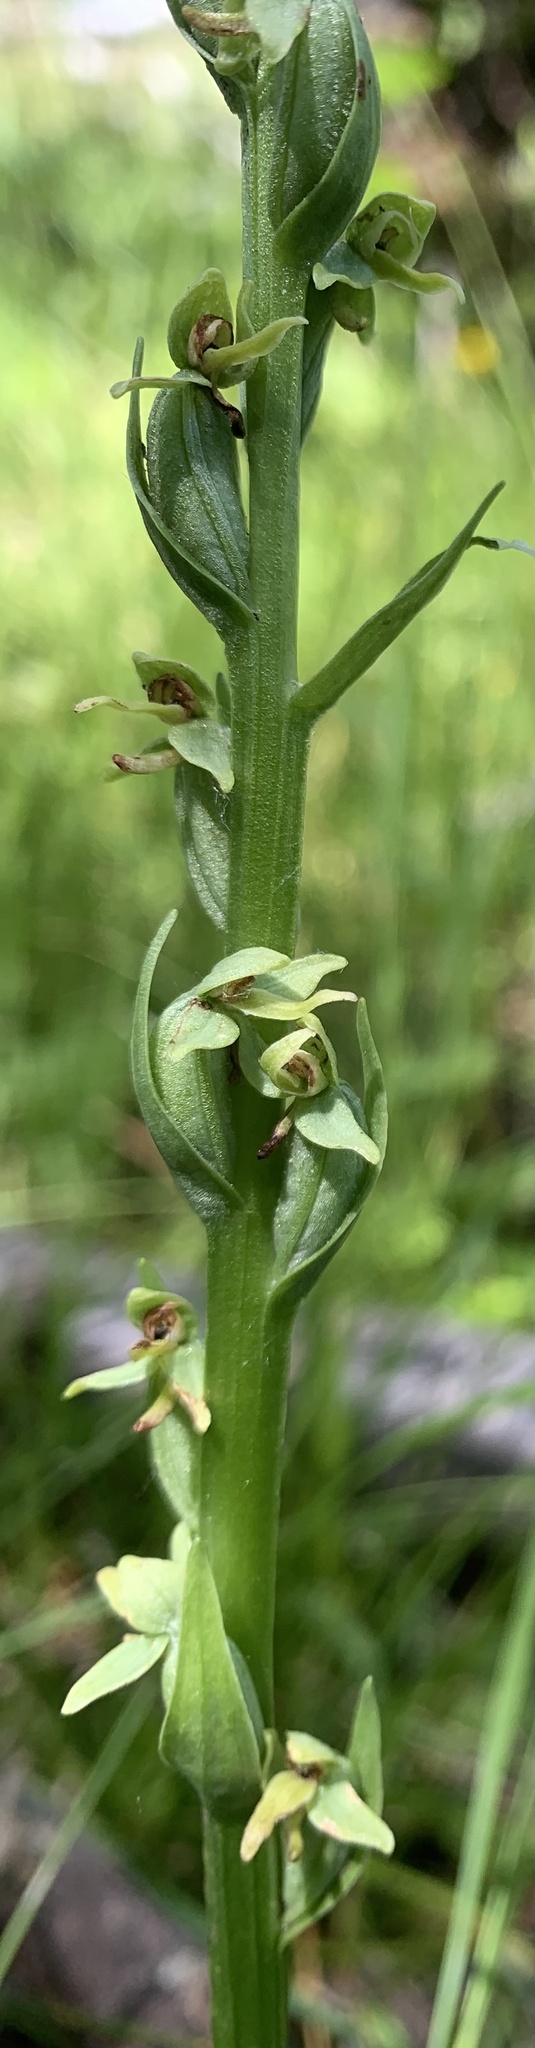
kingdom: Plantae
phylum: Tracheophyta
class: Liliopsida
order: Asparagales
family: Orchidaceae
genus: Platanthera
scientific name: Platanthera aquilonis
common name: Northern green orchid
